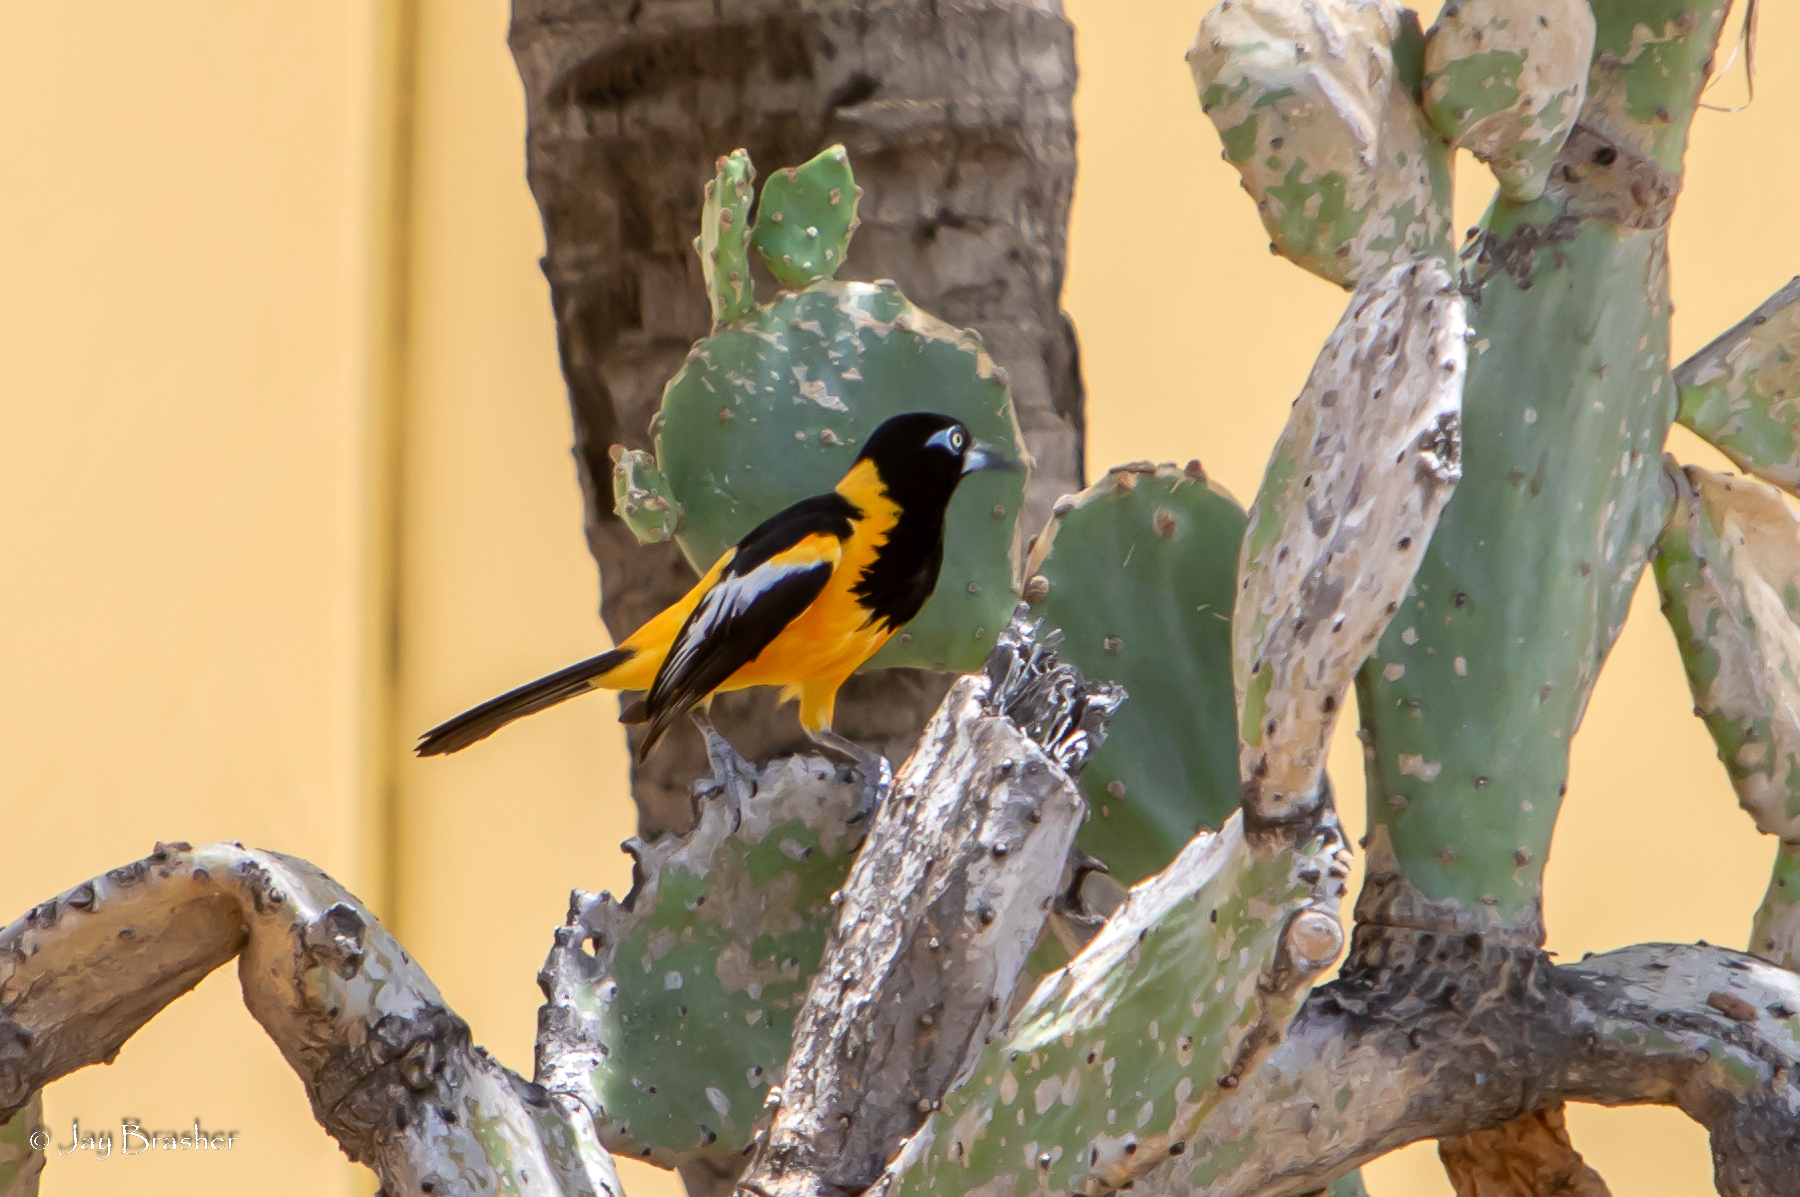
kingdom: Animalia
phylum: Chordata
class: Aves
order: Passeriformes
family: Icteridae
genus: Icterus
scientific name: Icterus icterus
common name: Venezuelan troupial
